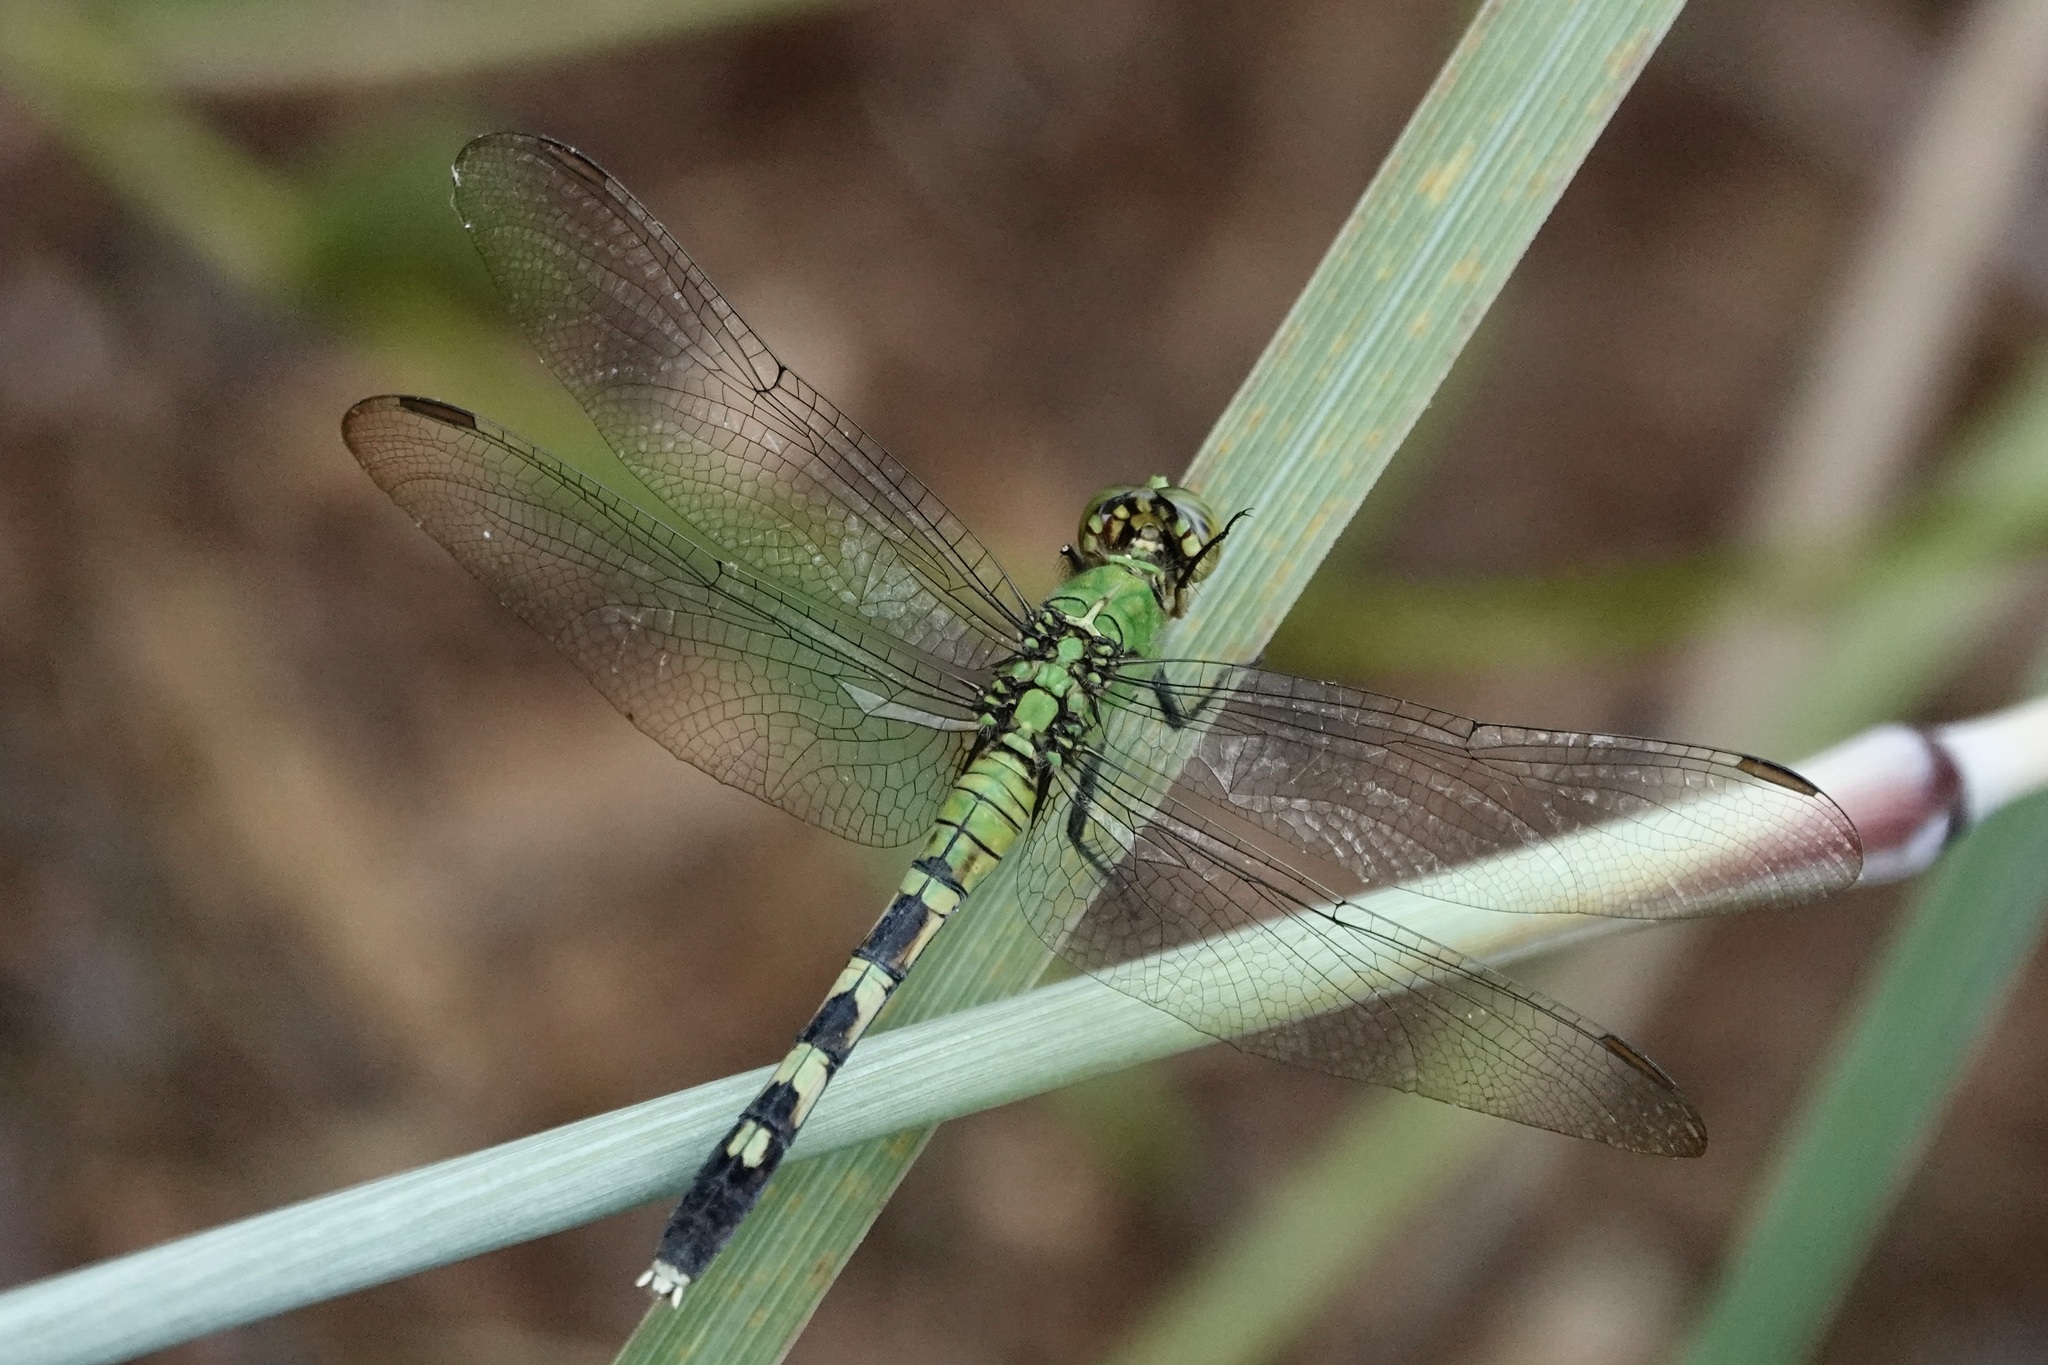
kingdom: Animalia
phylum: Arthropoda
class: Insecta
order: Odonata
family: Libellulidae
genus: Erythemis
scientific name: Erythemis simplicicollis
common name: Eastern pondhawk
